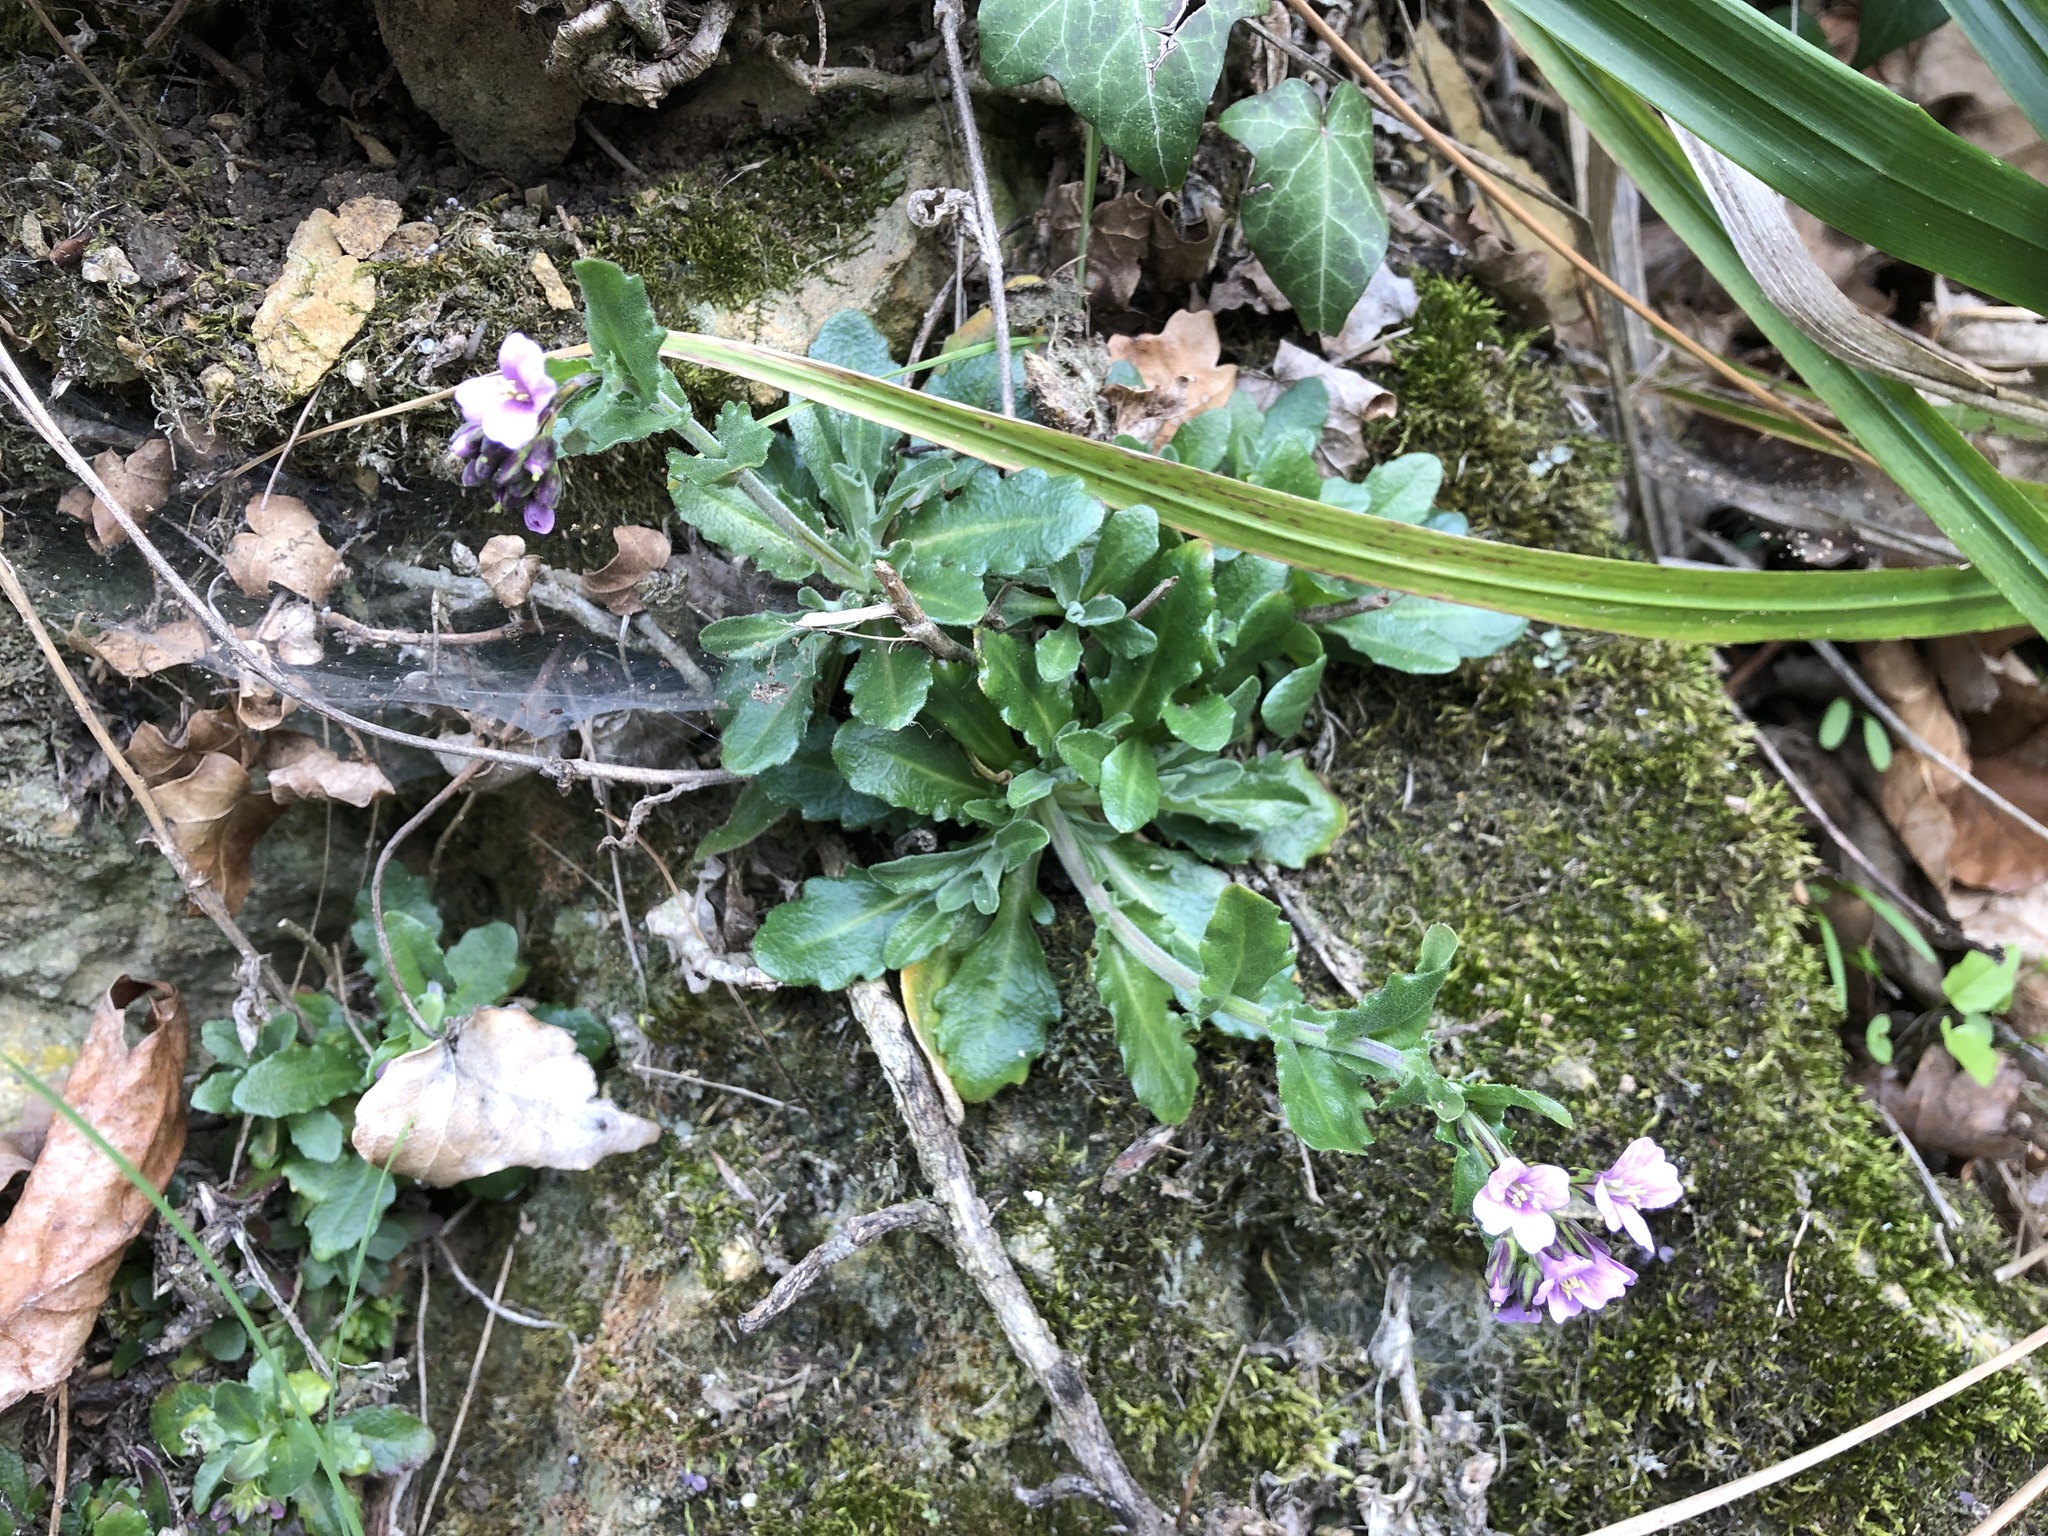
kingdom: Plantae
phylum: Tracheophyta
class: Magnoliopsida
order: Brassicales
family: Brassicaceae
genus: Arabis
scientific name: Arabis collina
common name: Rosy cress
